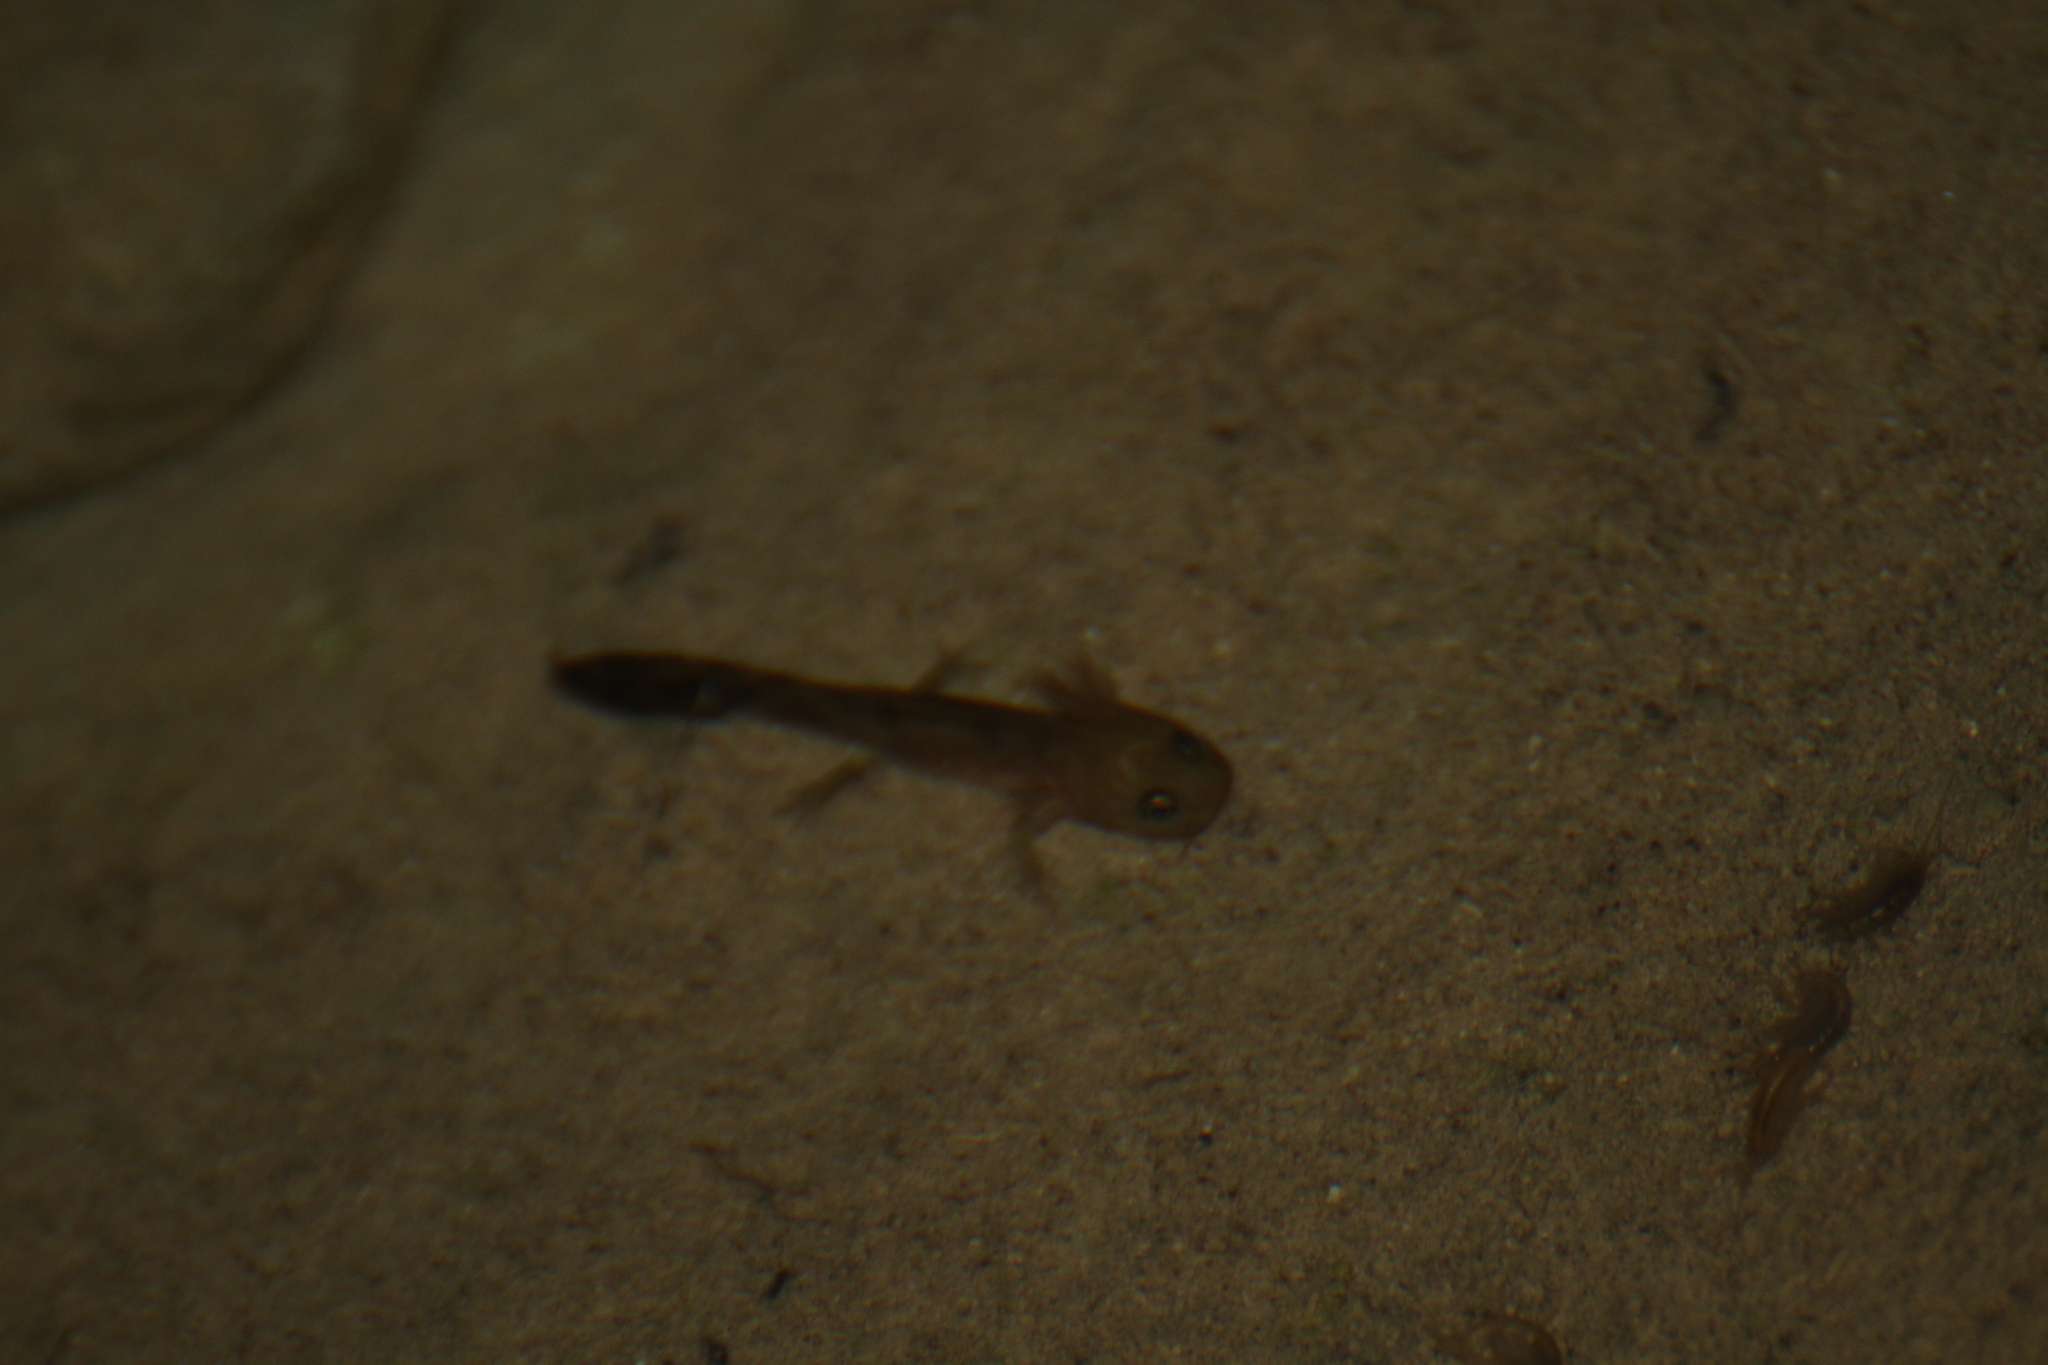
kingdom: Animalia
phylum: Chordata
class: Amphibia
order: Caudata
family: Salamandridae
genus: Salamandra
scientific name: Salamandra salamandra
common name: Fire salamander
